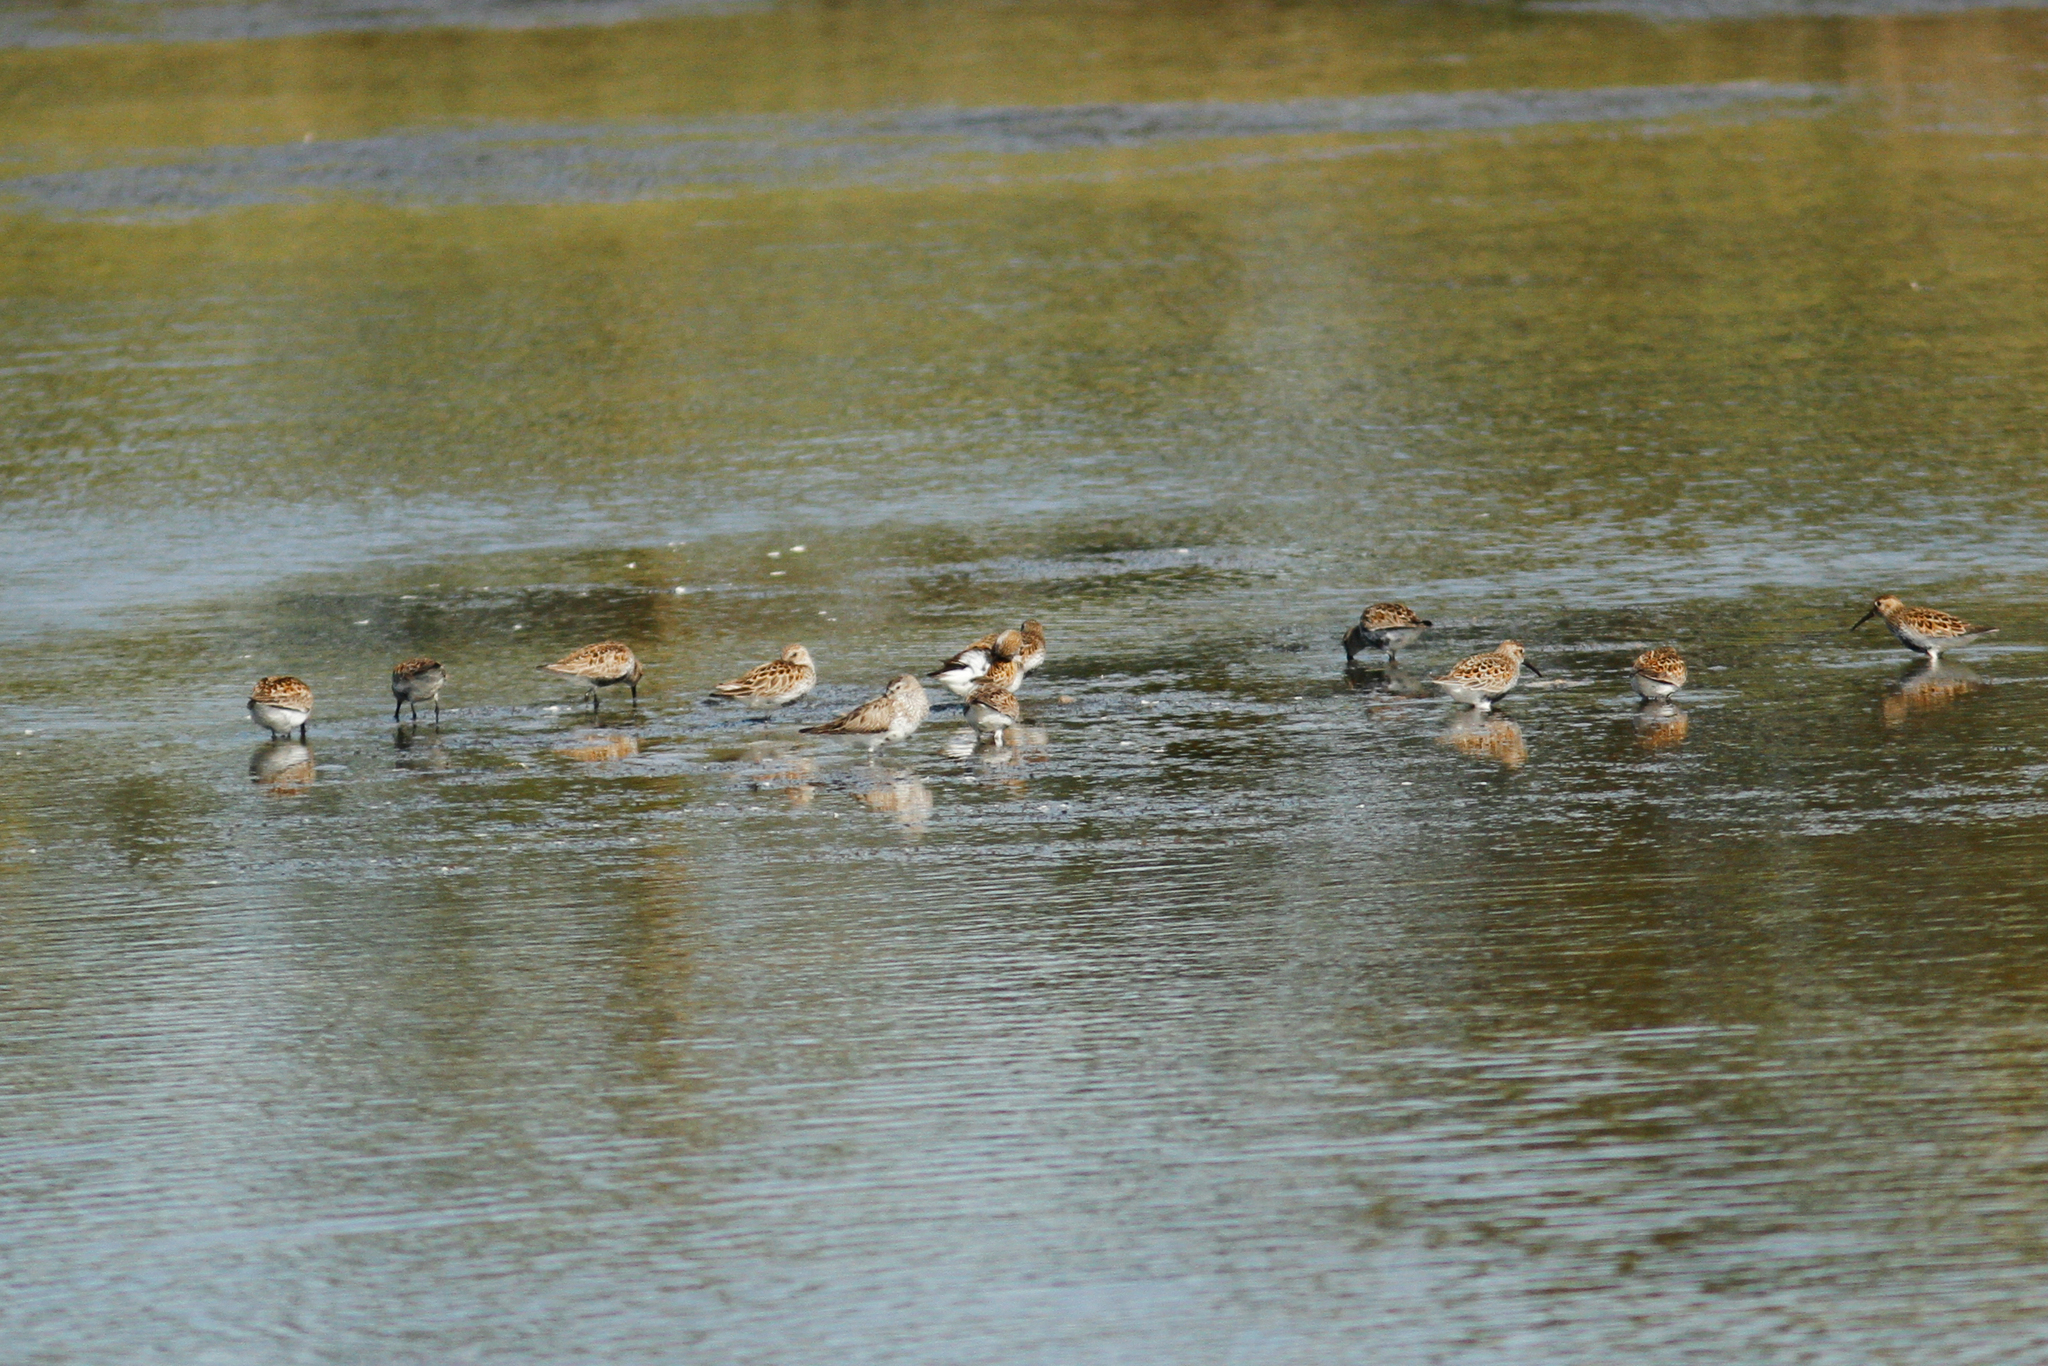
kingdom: Animalia
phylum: Chordata
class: Aves
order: Charadriiformes
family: Scolopacidae
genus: Calidris
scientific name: Calidris alpina
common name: Dunlin
